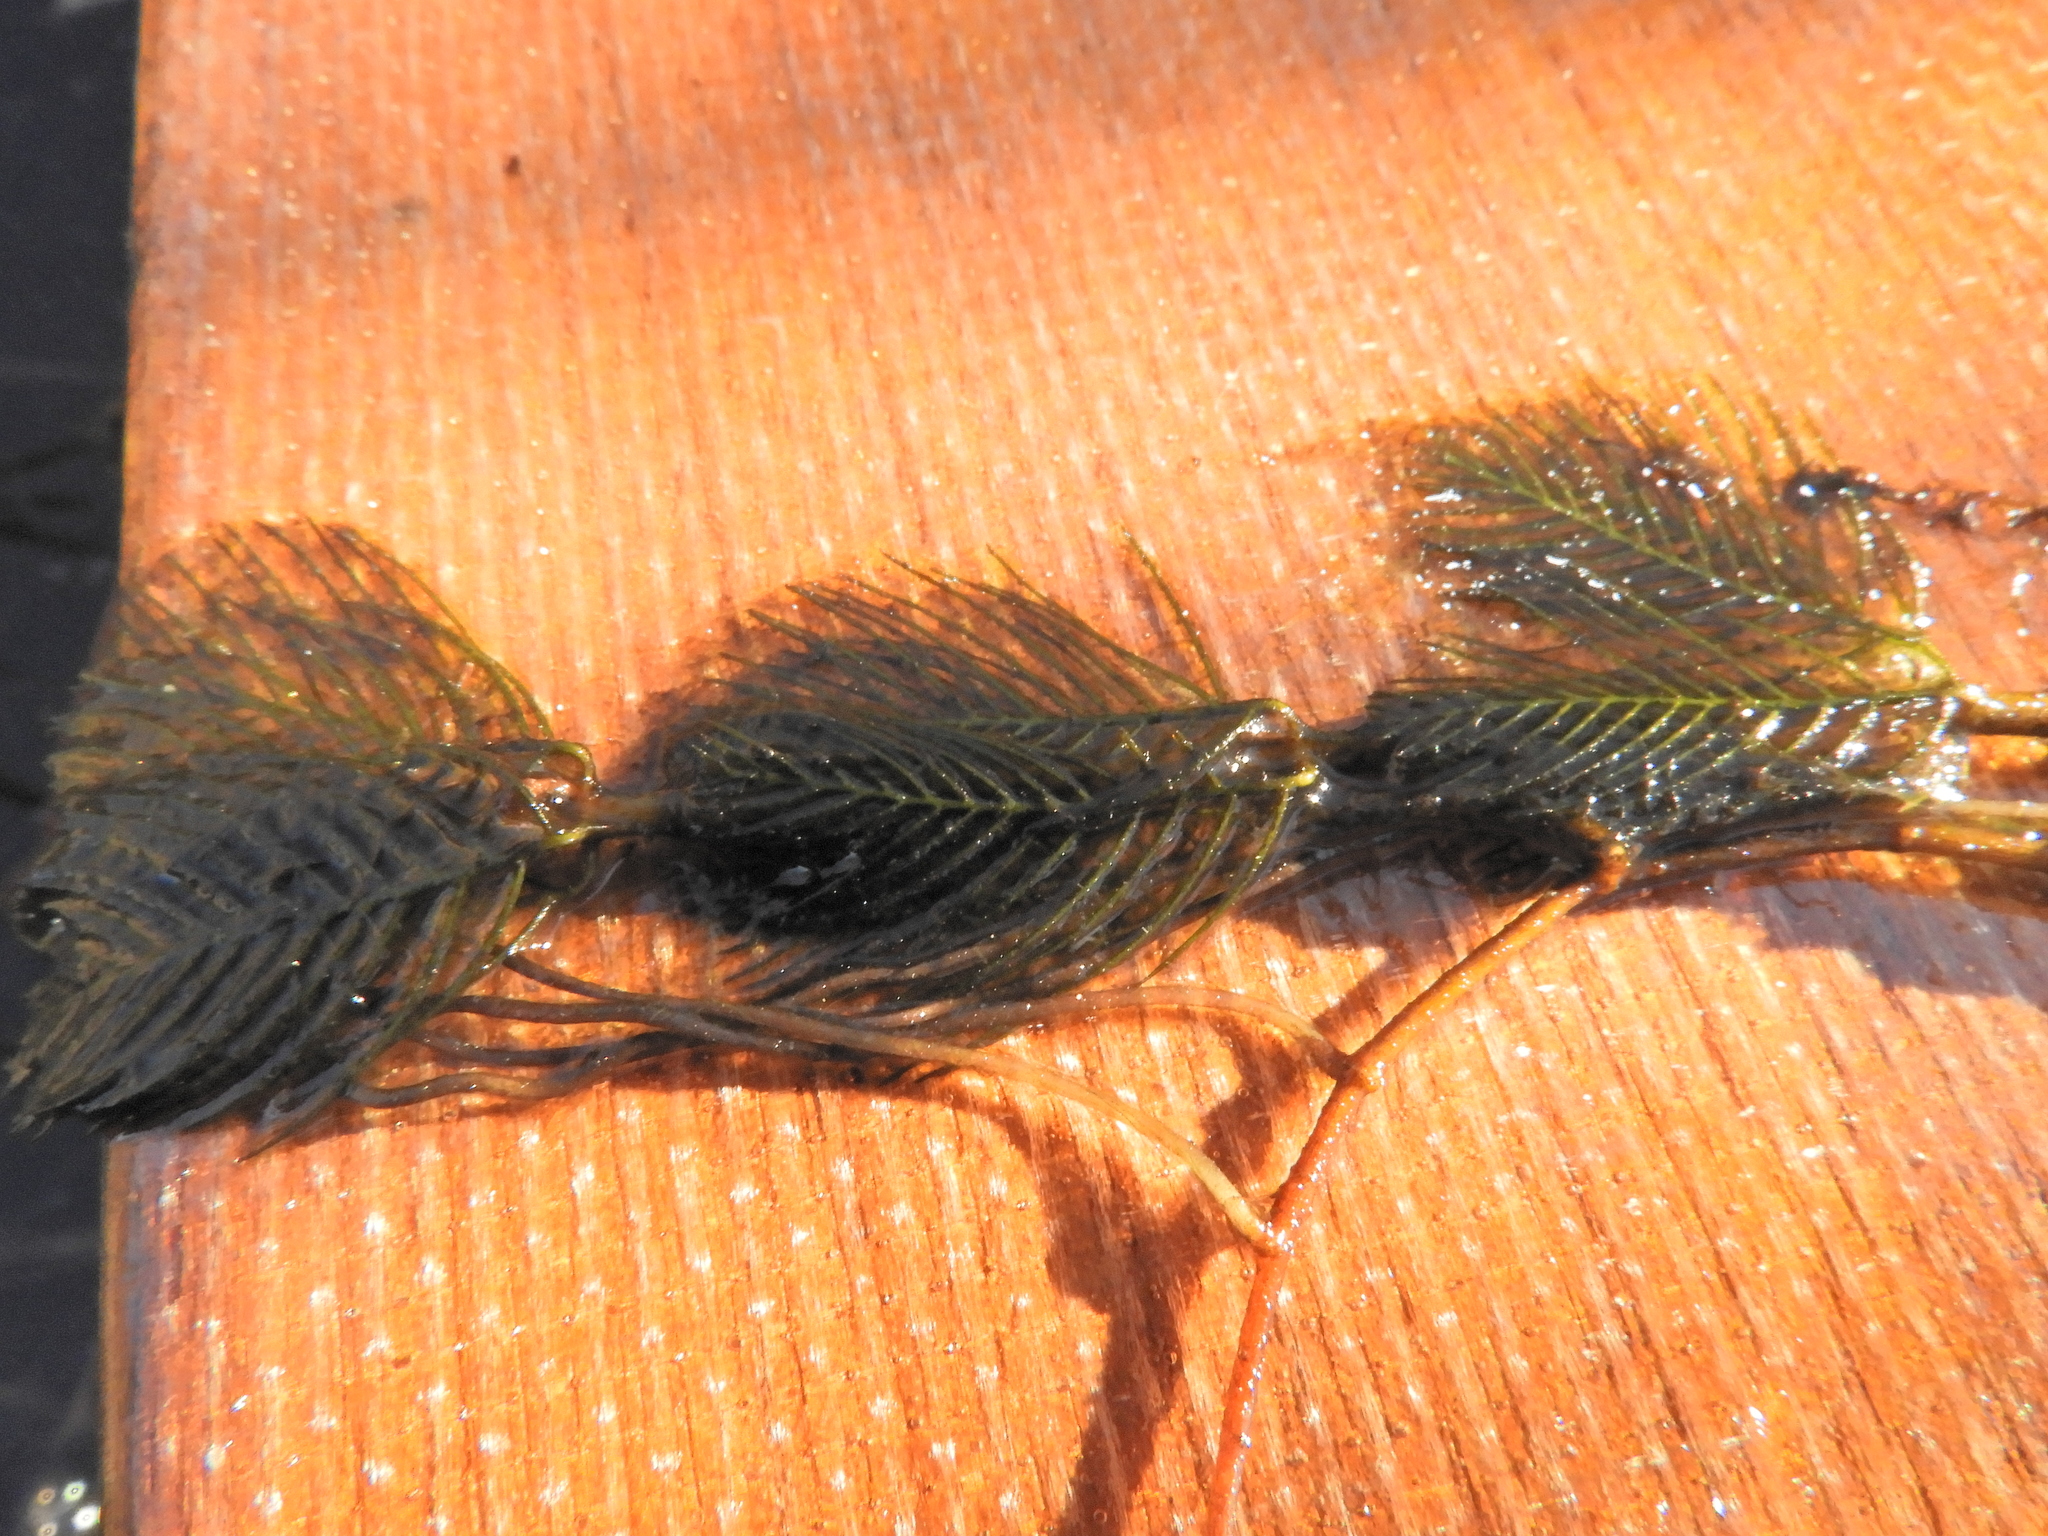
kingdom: Plantae
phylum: Tracheophyta
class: Magnoliopsida
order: Saxifragales
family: Haloragaceae
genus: Myriophyllum
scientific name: Myriophyllum spicatum
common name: Spiked water-milfoil
